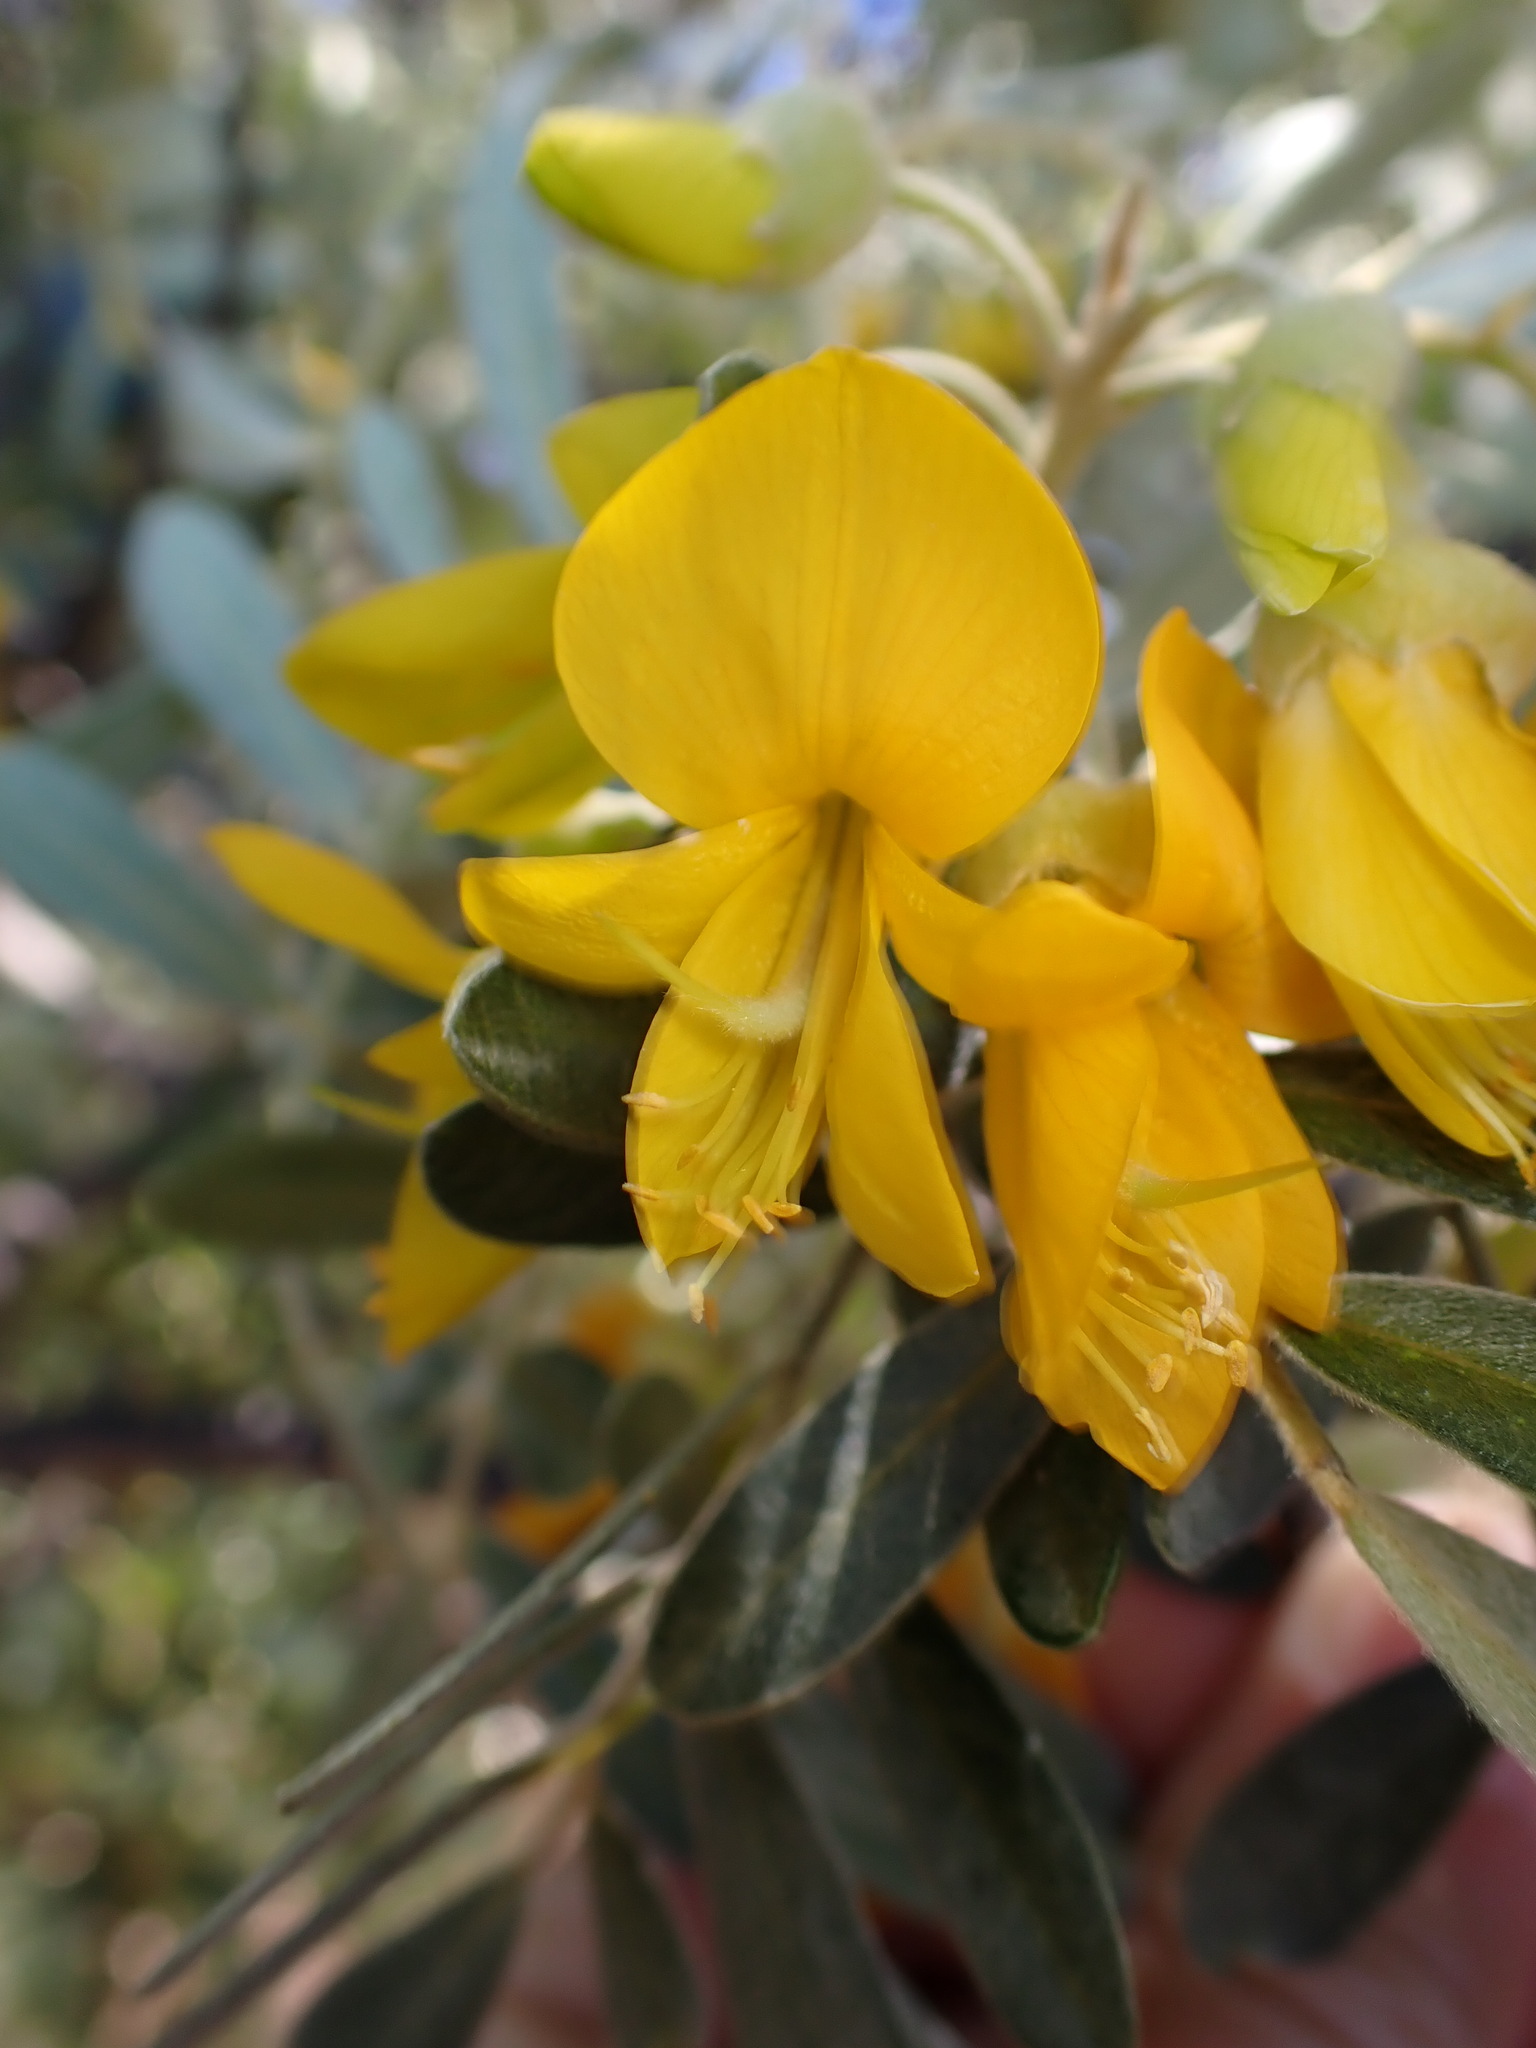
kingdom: Plantae
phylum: Tracheophyta
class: Magnoliopsida
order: Fabales
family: Fabaceae
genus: Sophora
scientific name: Sophora chrysophylla
